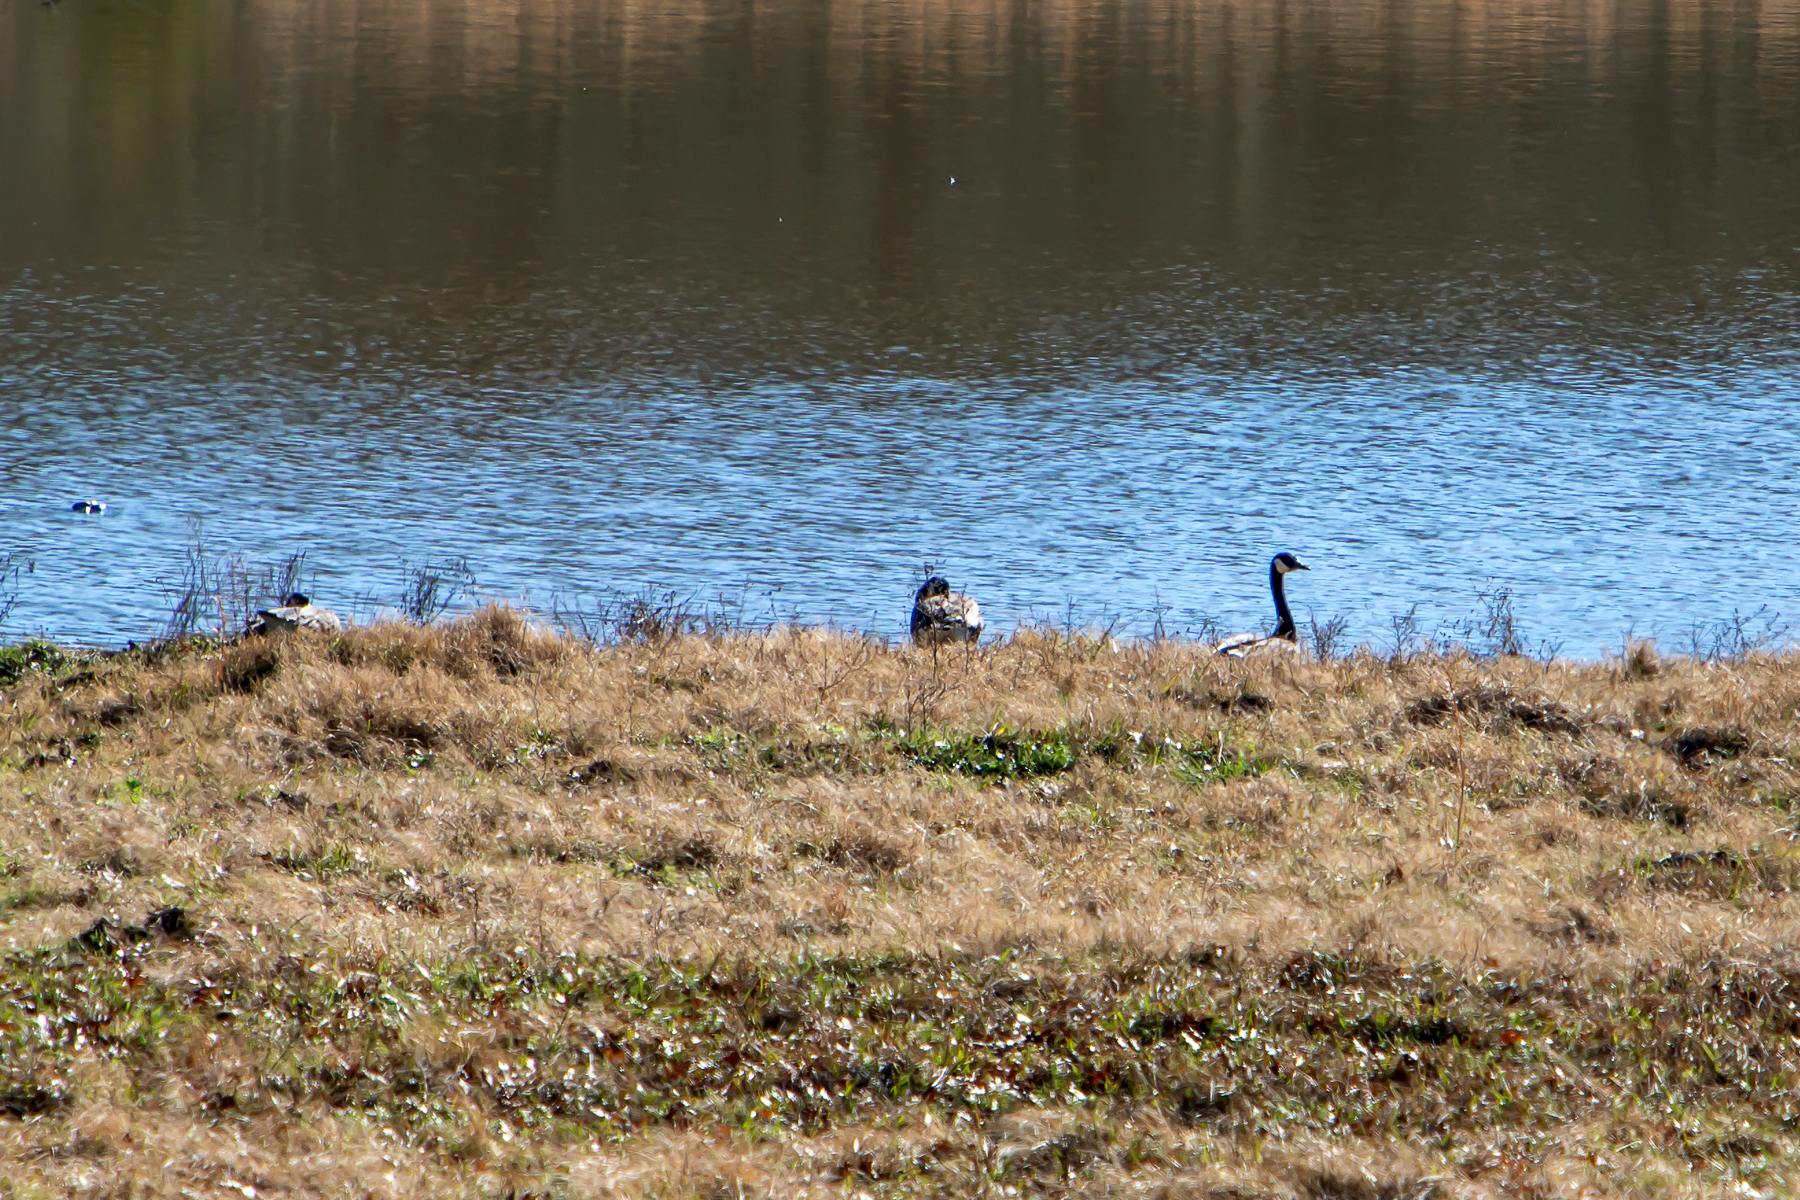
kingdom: Animalia
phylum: Chordata
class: Aves
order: Anseriformes
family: Anatidae
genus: Branta
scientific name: Branta canadensis
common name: Canada goose
